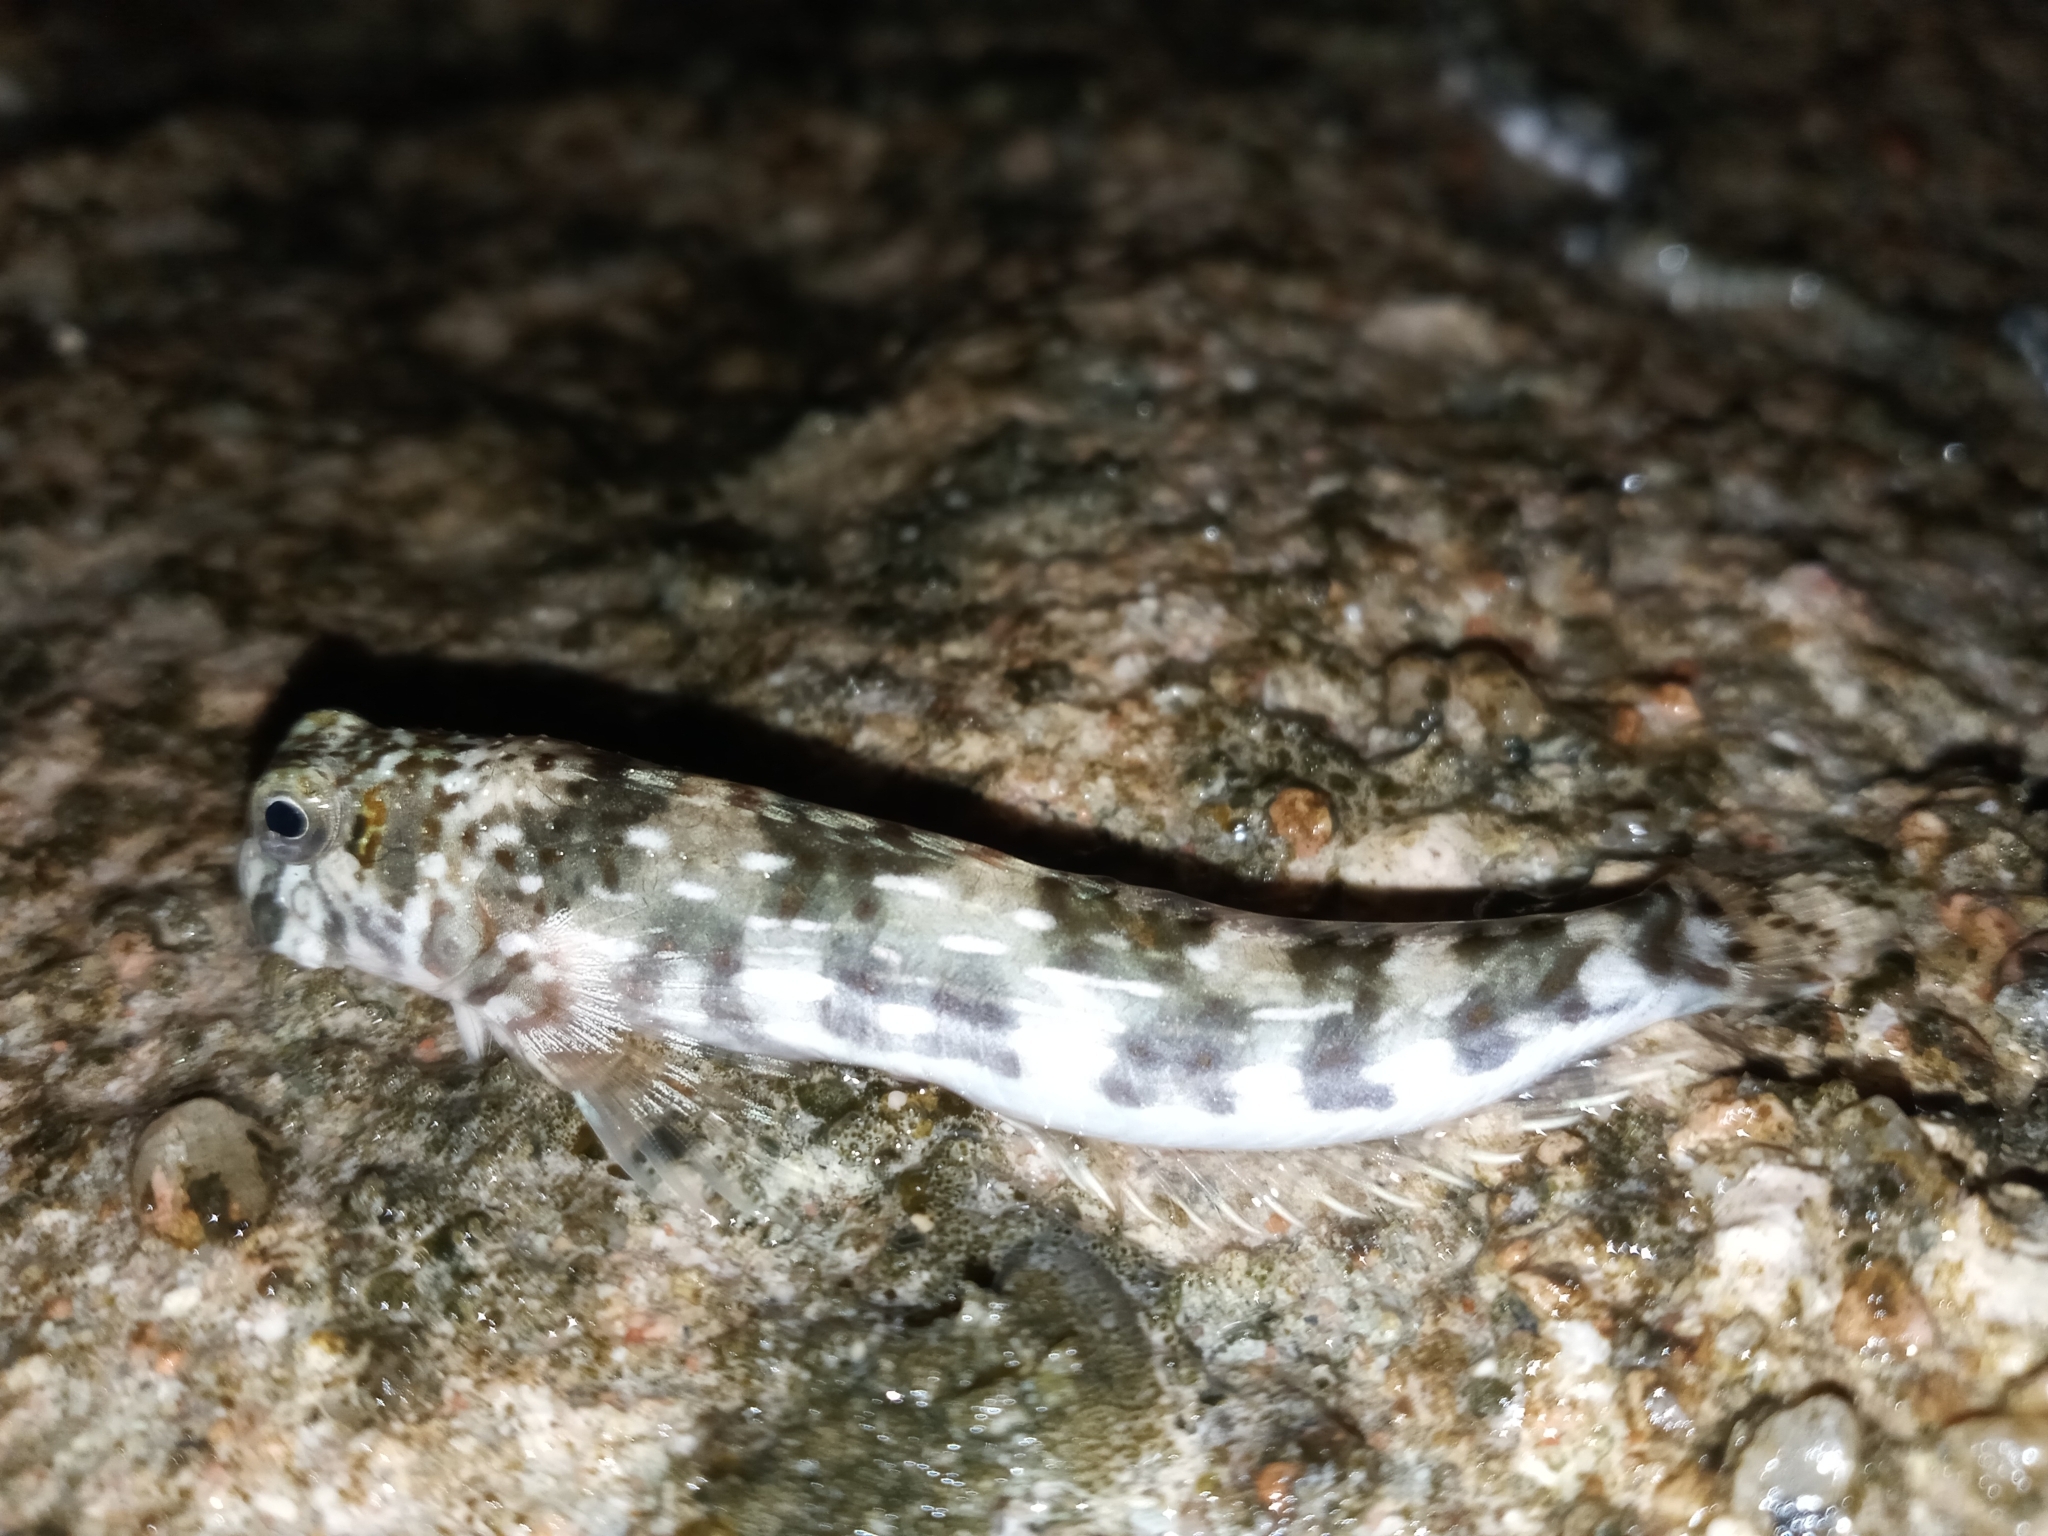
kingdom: Animalia
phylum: Chordata
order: Perciformes
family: Blenniidae
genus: Istiblennius
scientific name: Istiblennius unicolor
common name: Pallid rockskipper
